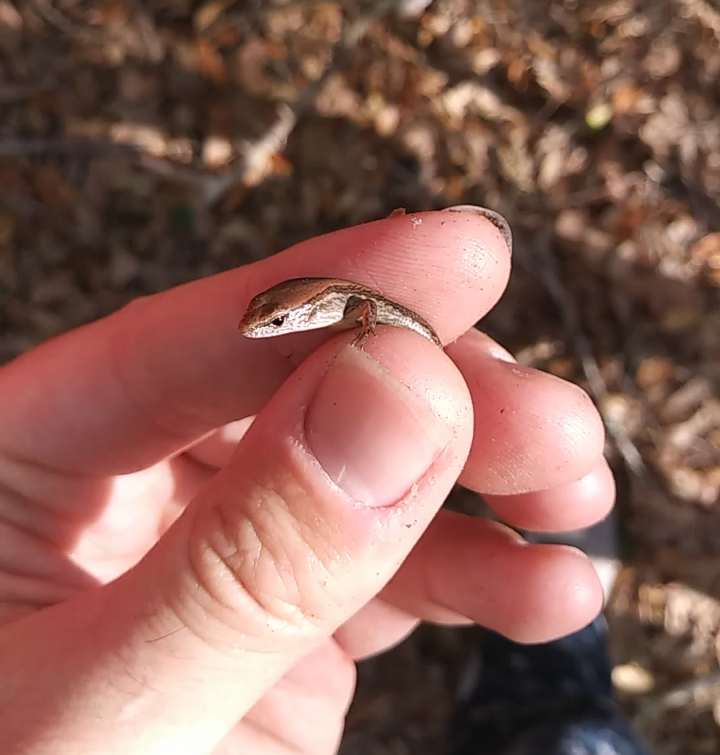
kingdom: Animalia
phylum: Chordata
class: Squamata
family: Scincidae
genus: Scincella
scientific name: Scincella lateralis
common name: Ground skink
